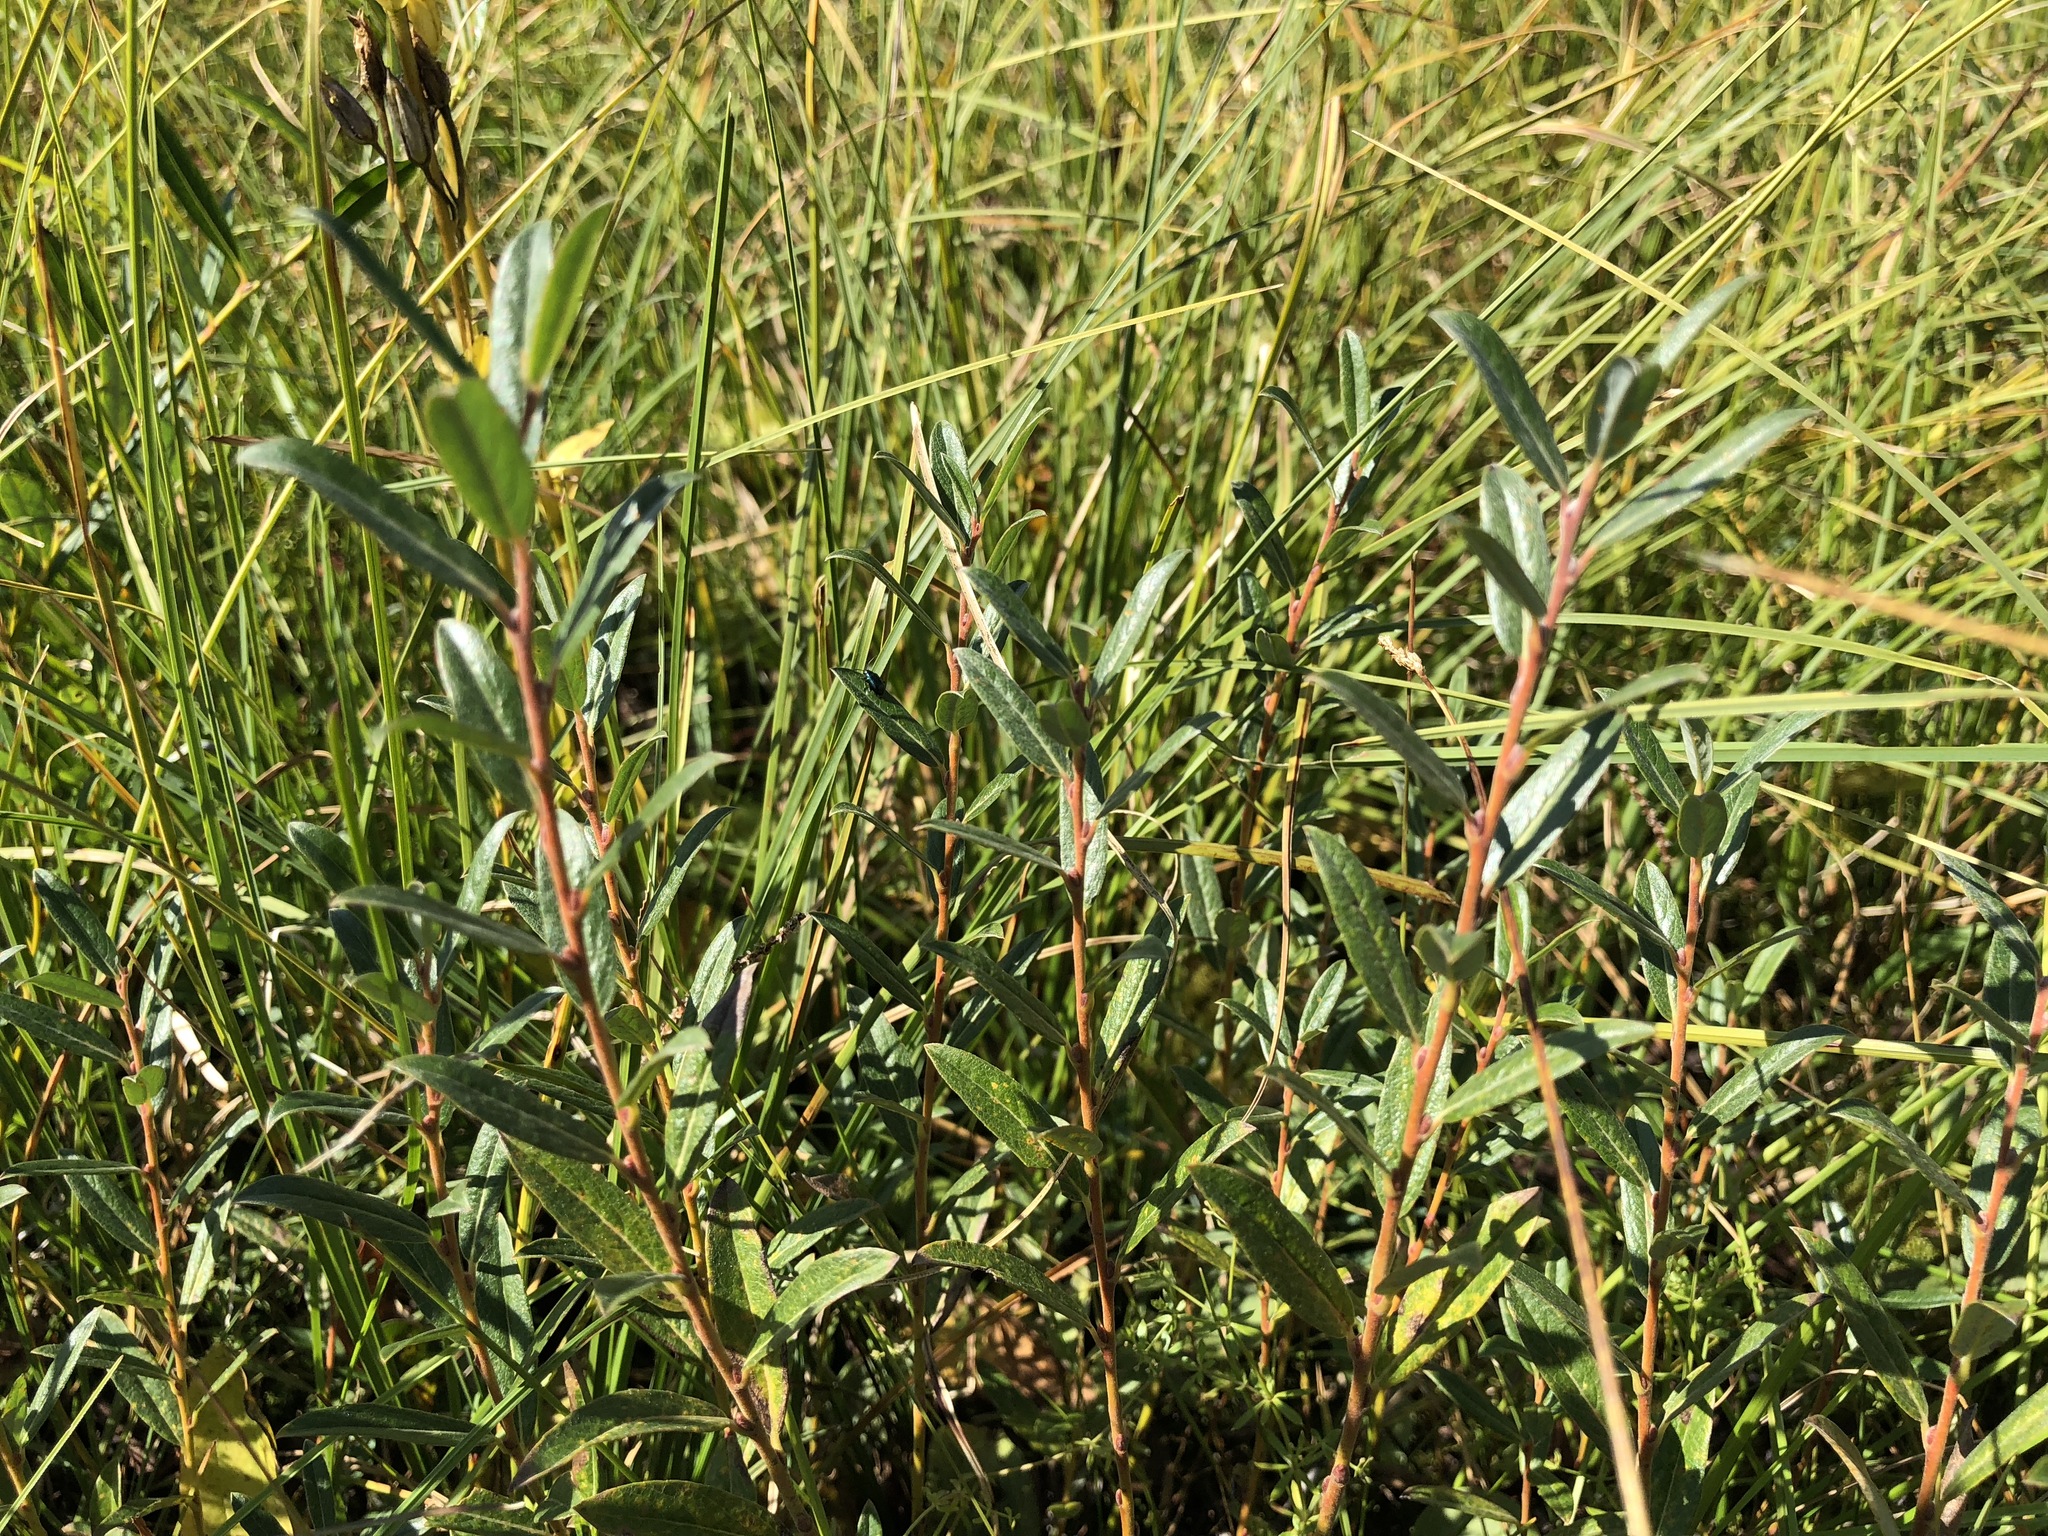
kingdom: Plantae
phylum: Tracheophyta
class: Magnoliopsida
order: Malpighiales
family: Salicaceae
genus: Salix
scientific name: Salix repens
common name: Creeping willow
